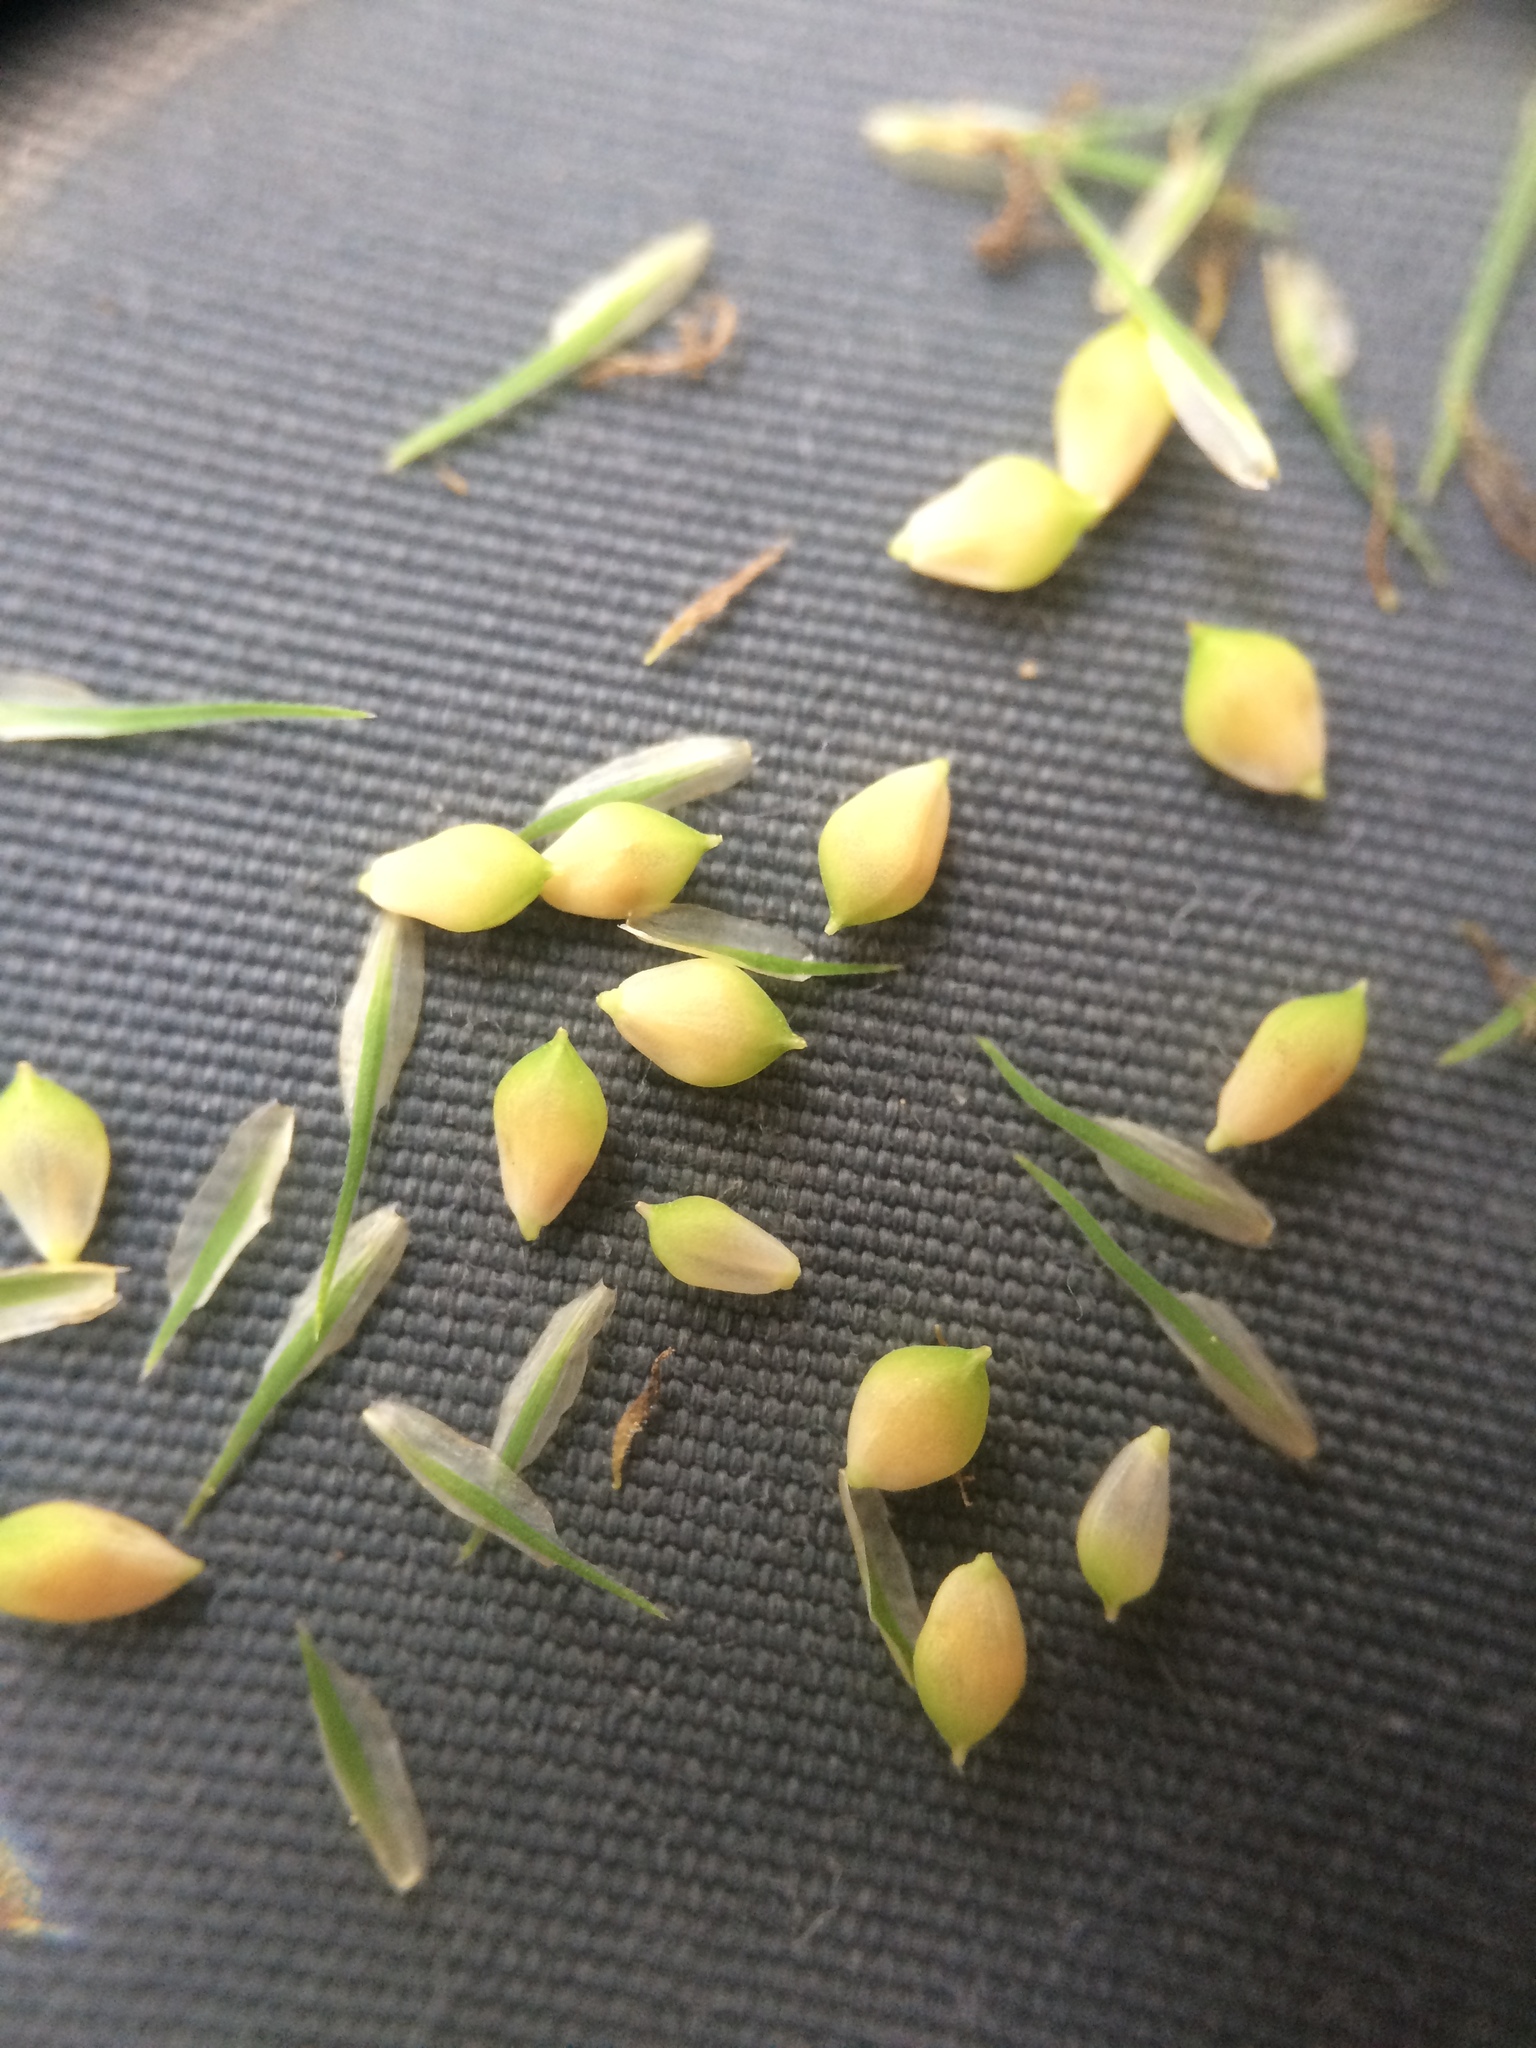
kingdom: Plantae
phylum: Tracheophyta
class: Liliopsida
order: Poales
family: Cyperaceae
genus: Carex
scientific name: Carex crinita
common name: Fringed sedge
